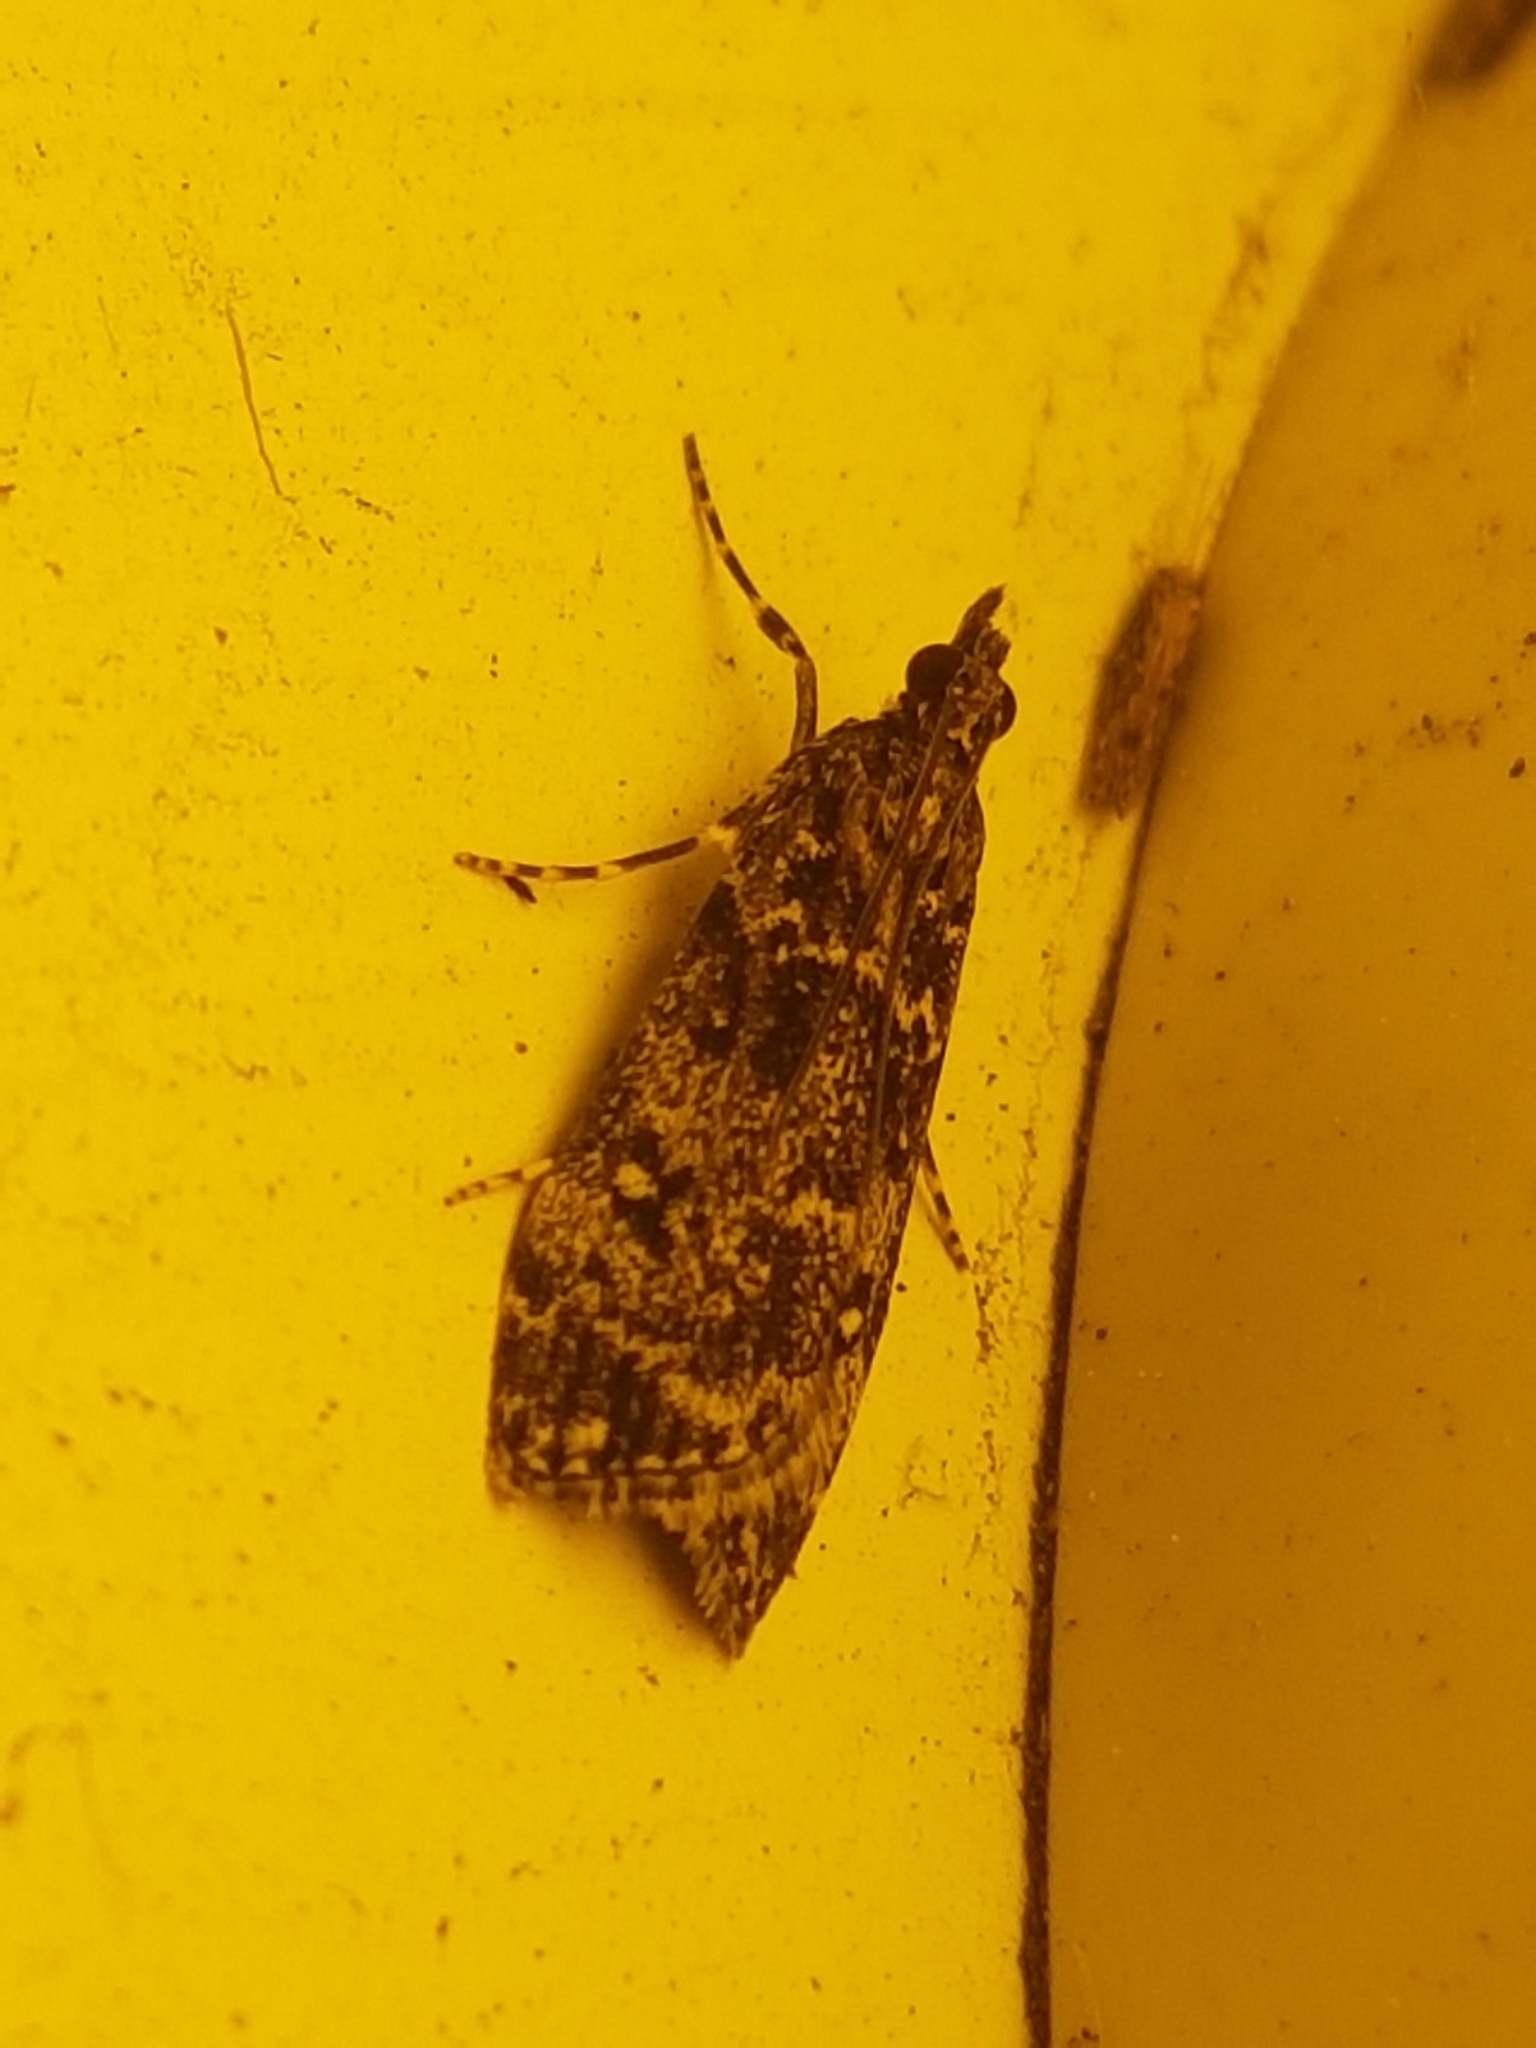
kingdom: Animalia
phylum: Arthropoda
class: Insecta
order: Lepidoptera
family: Crambidae
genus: Eudonia
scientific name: Eudonia philerga
